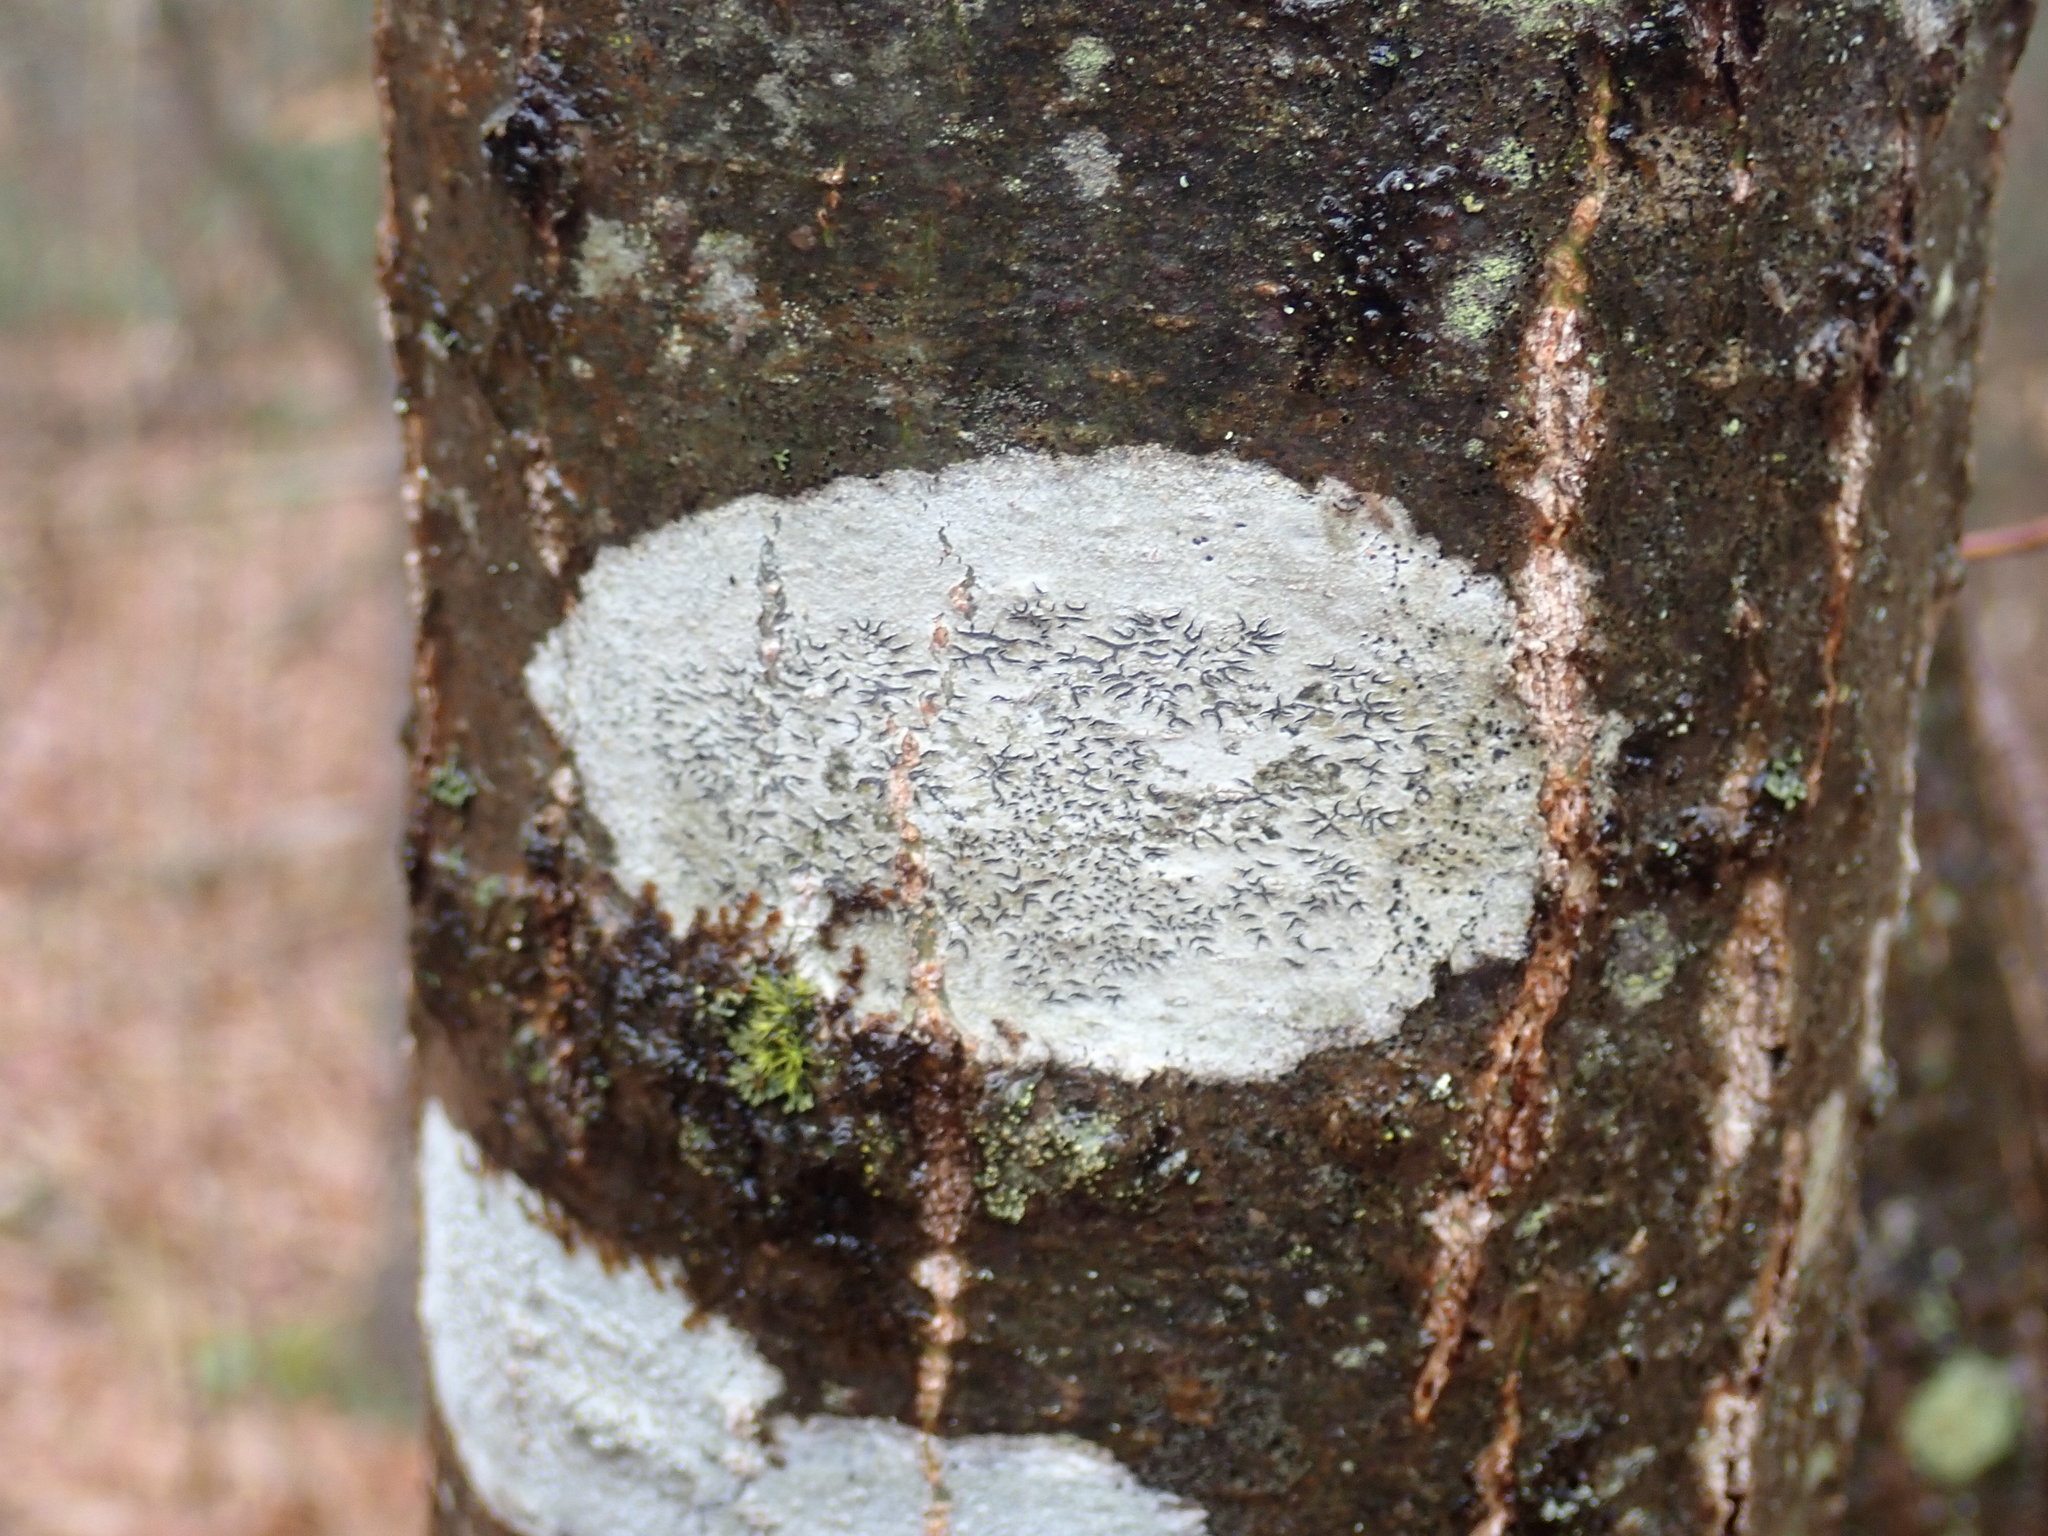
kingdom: Fungi
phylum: Ascomycota
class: Lecanoromycetes
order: Ostropales
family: Graphidaceae
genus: Graphis
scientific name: Graphis scripta
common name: Script lichen
